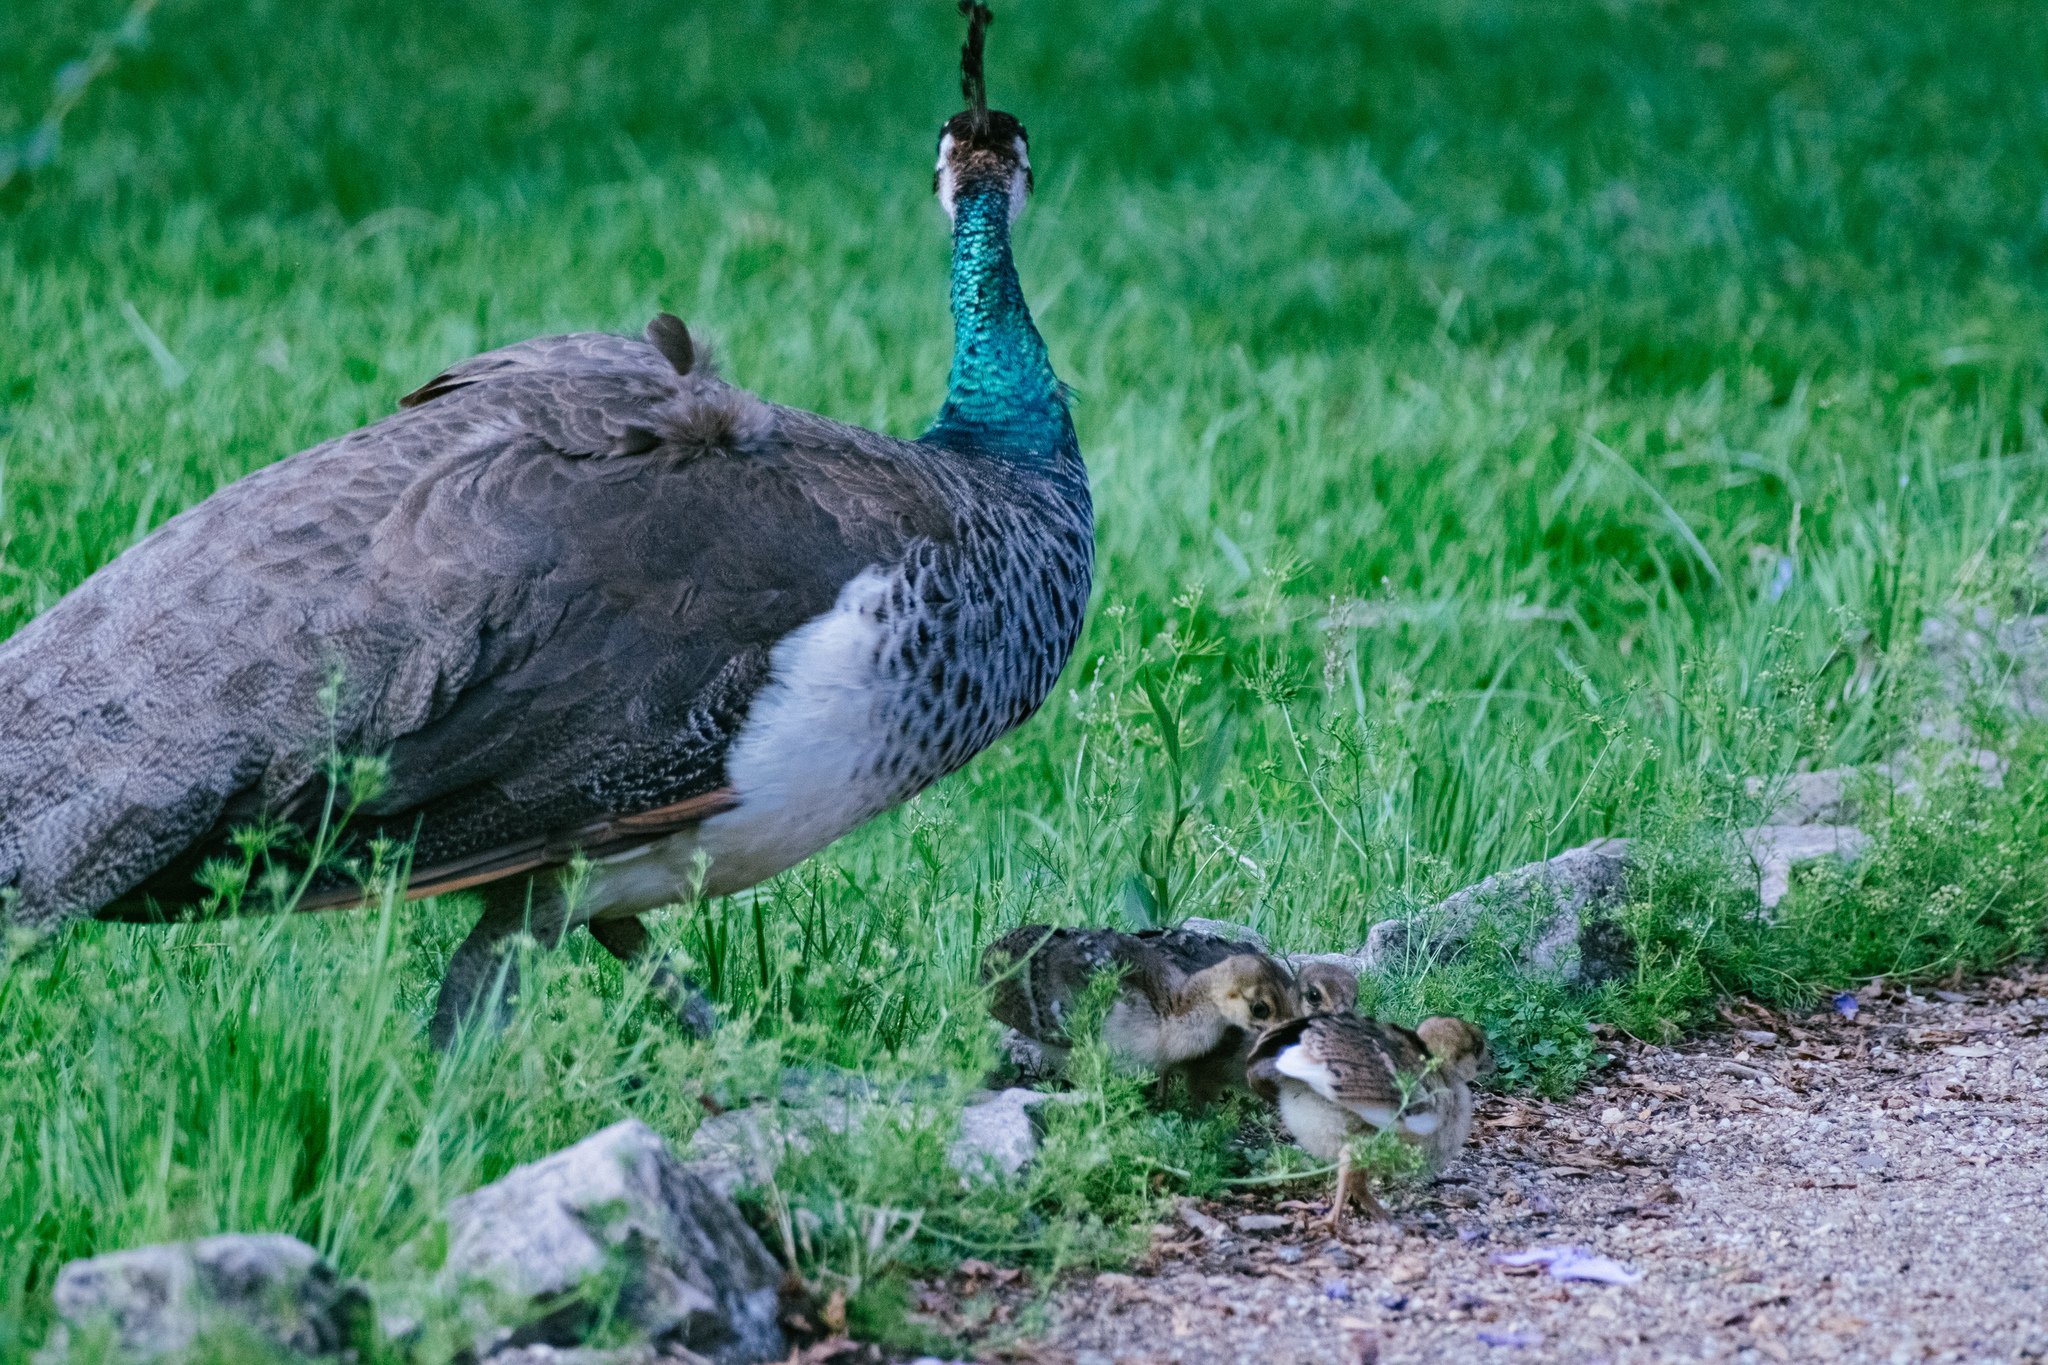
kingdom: Animalia
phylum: Chordata
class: Aves
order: Galliformes
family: Phasianidae
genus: Pavo
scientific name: Pavo cristatus
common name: Indian peafowl
